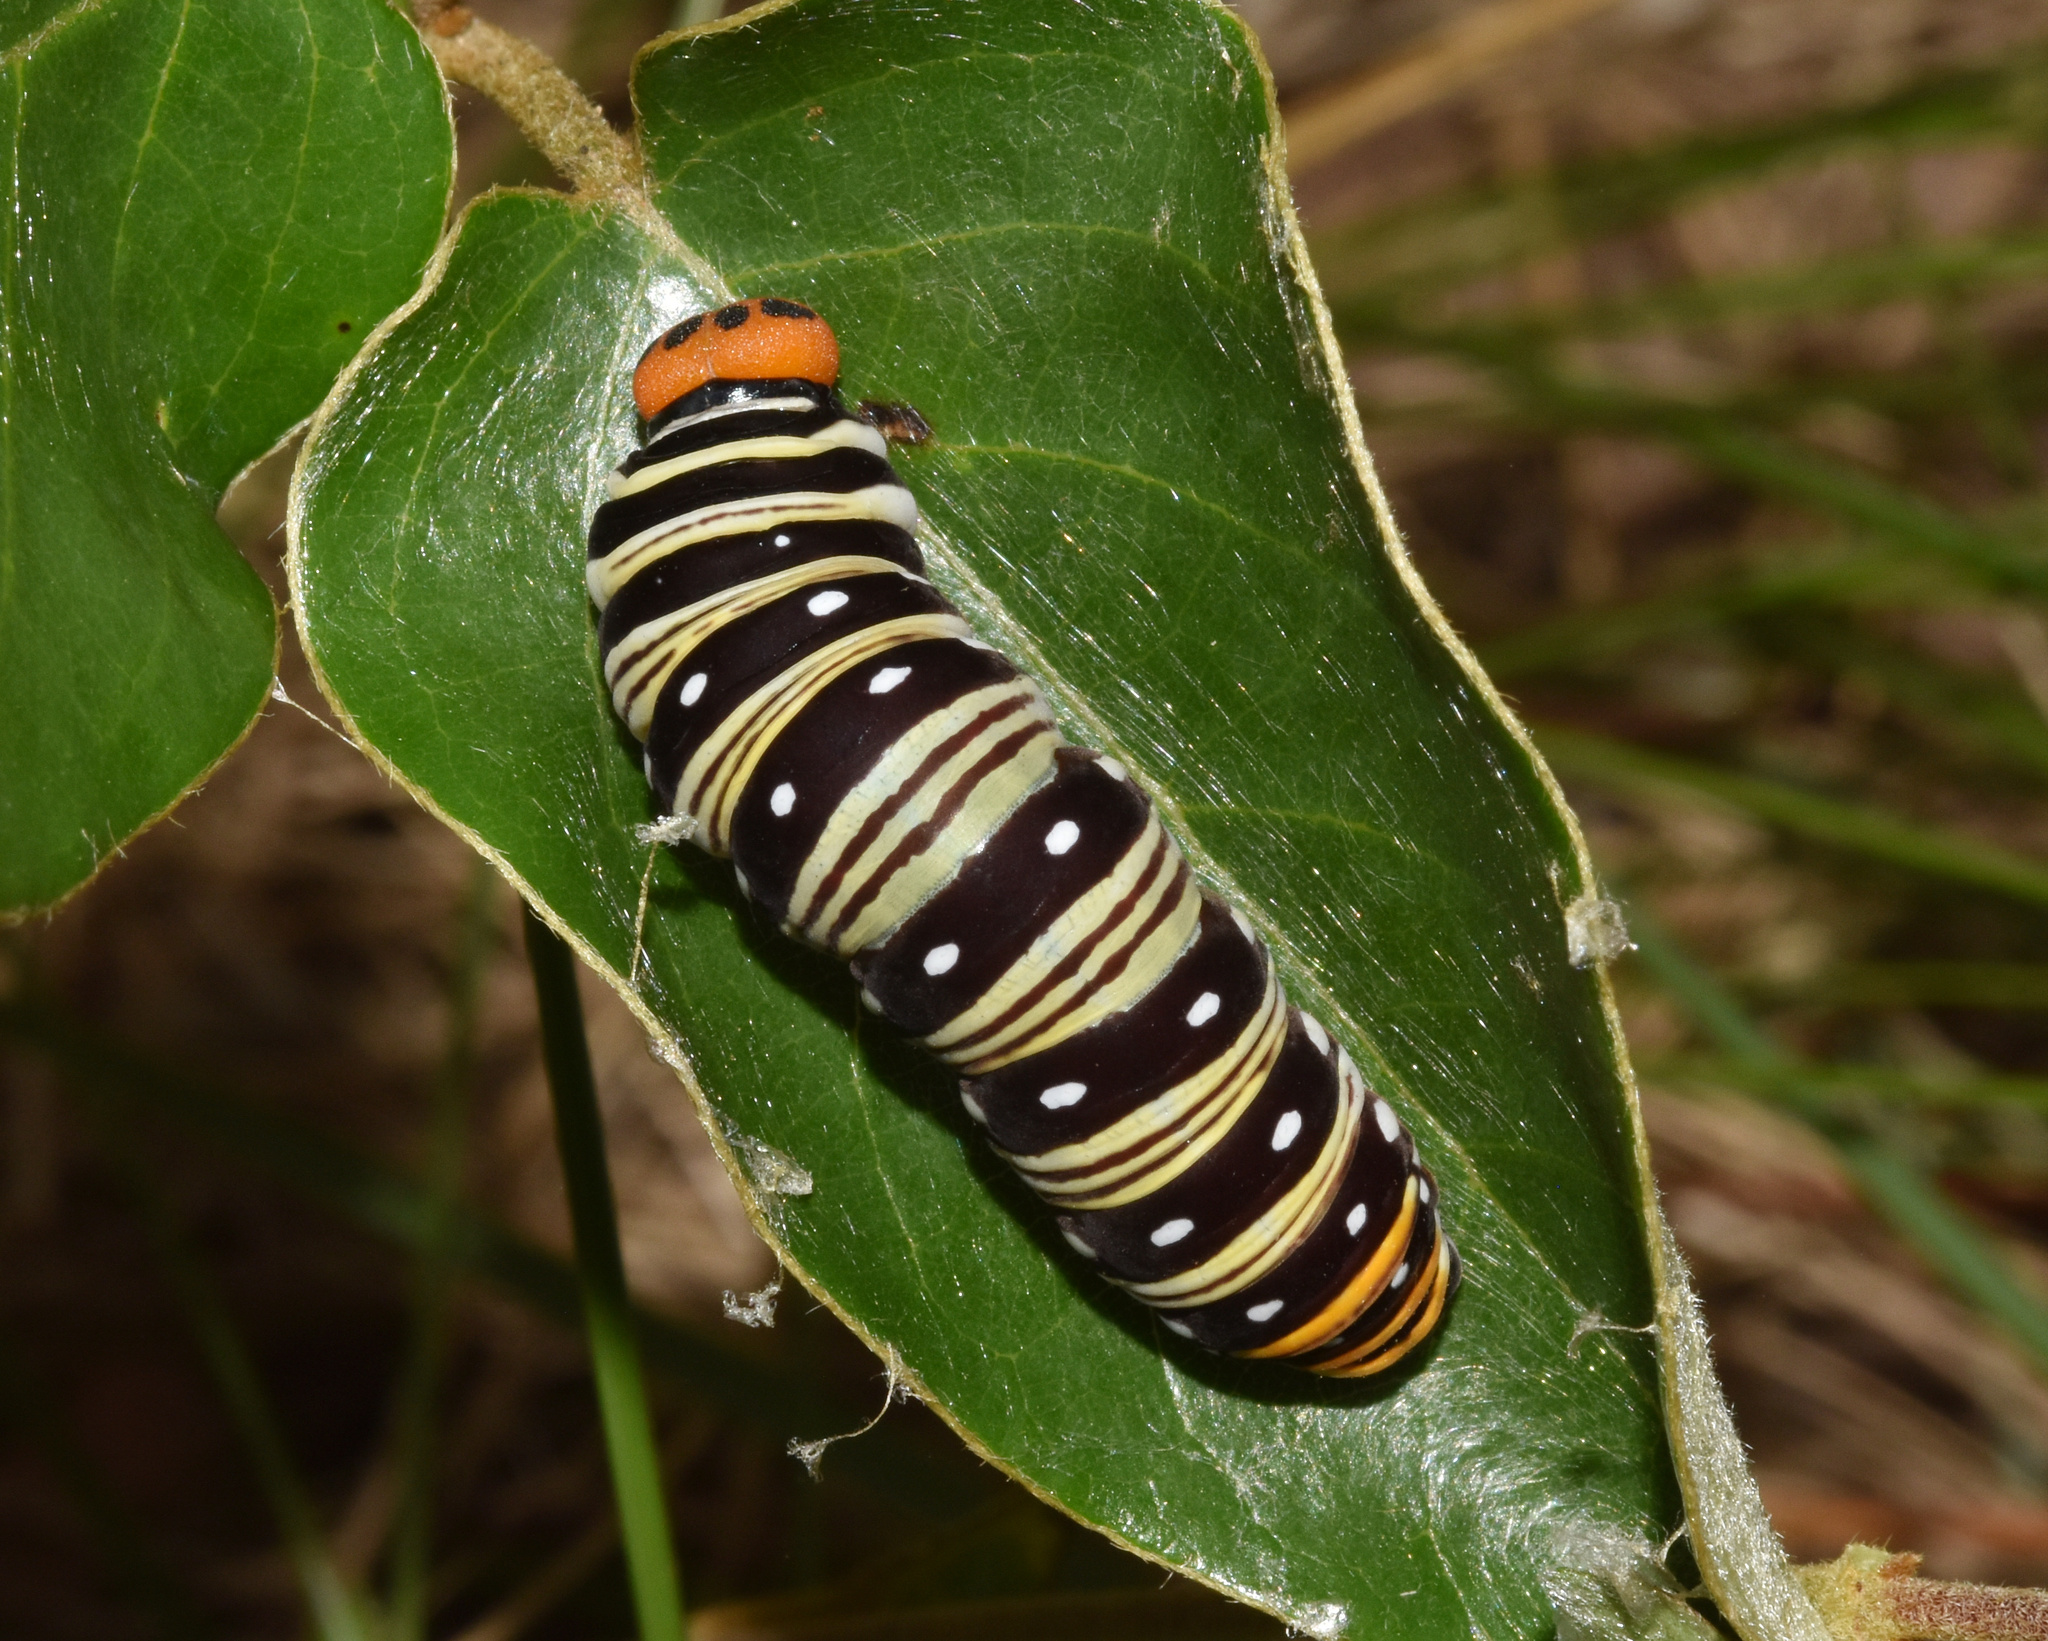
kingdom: Animalia
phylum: Arthropoda
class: Insecta
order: Lepidoptera
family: Hesperiidae
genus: Coeliades
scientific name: Coeliades pisistratus
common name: Two-pip policeman
